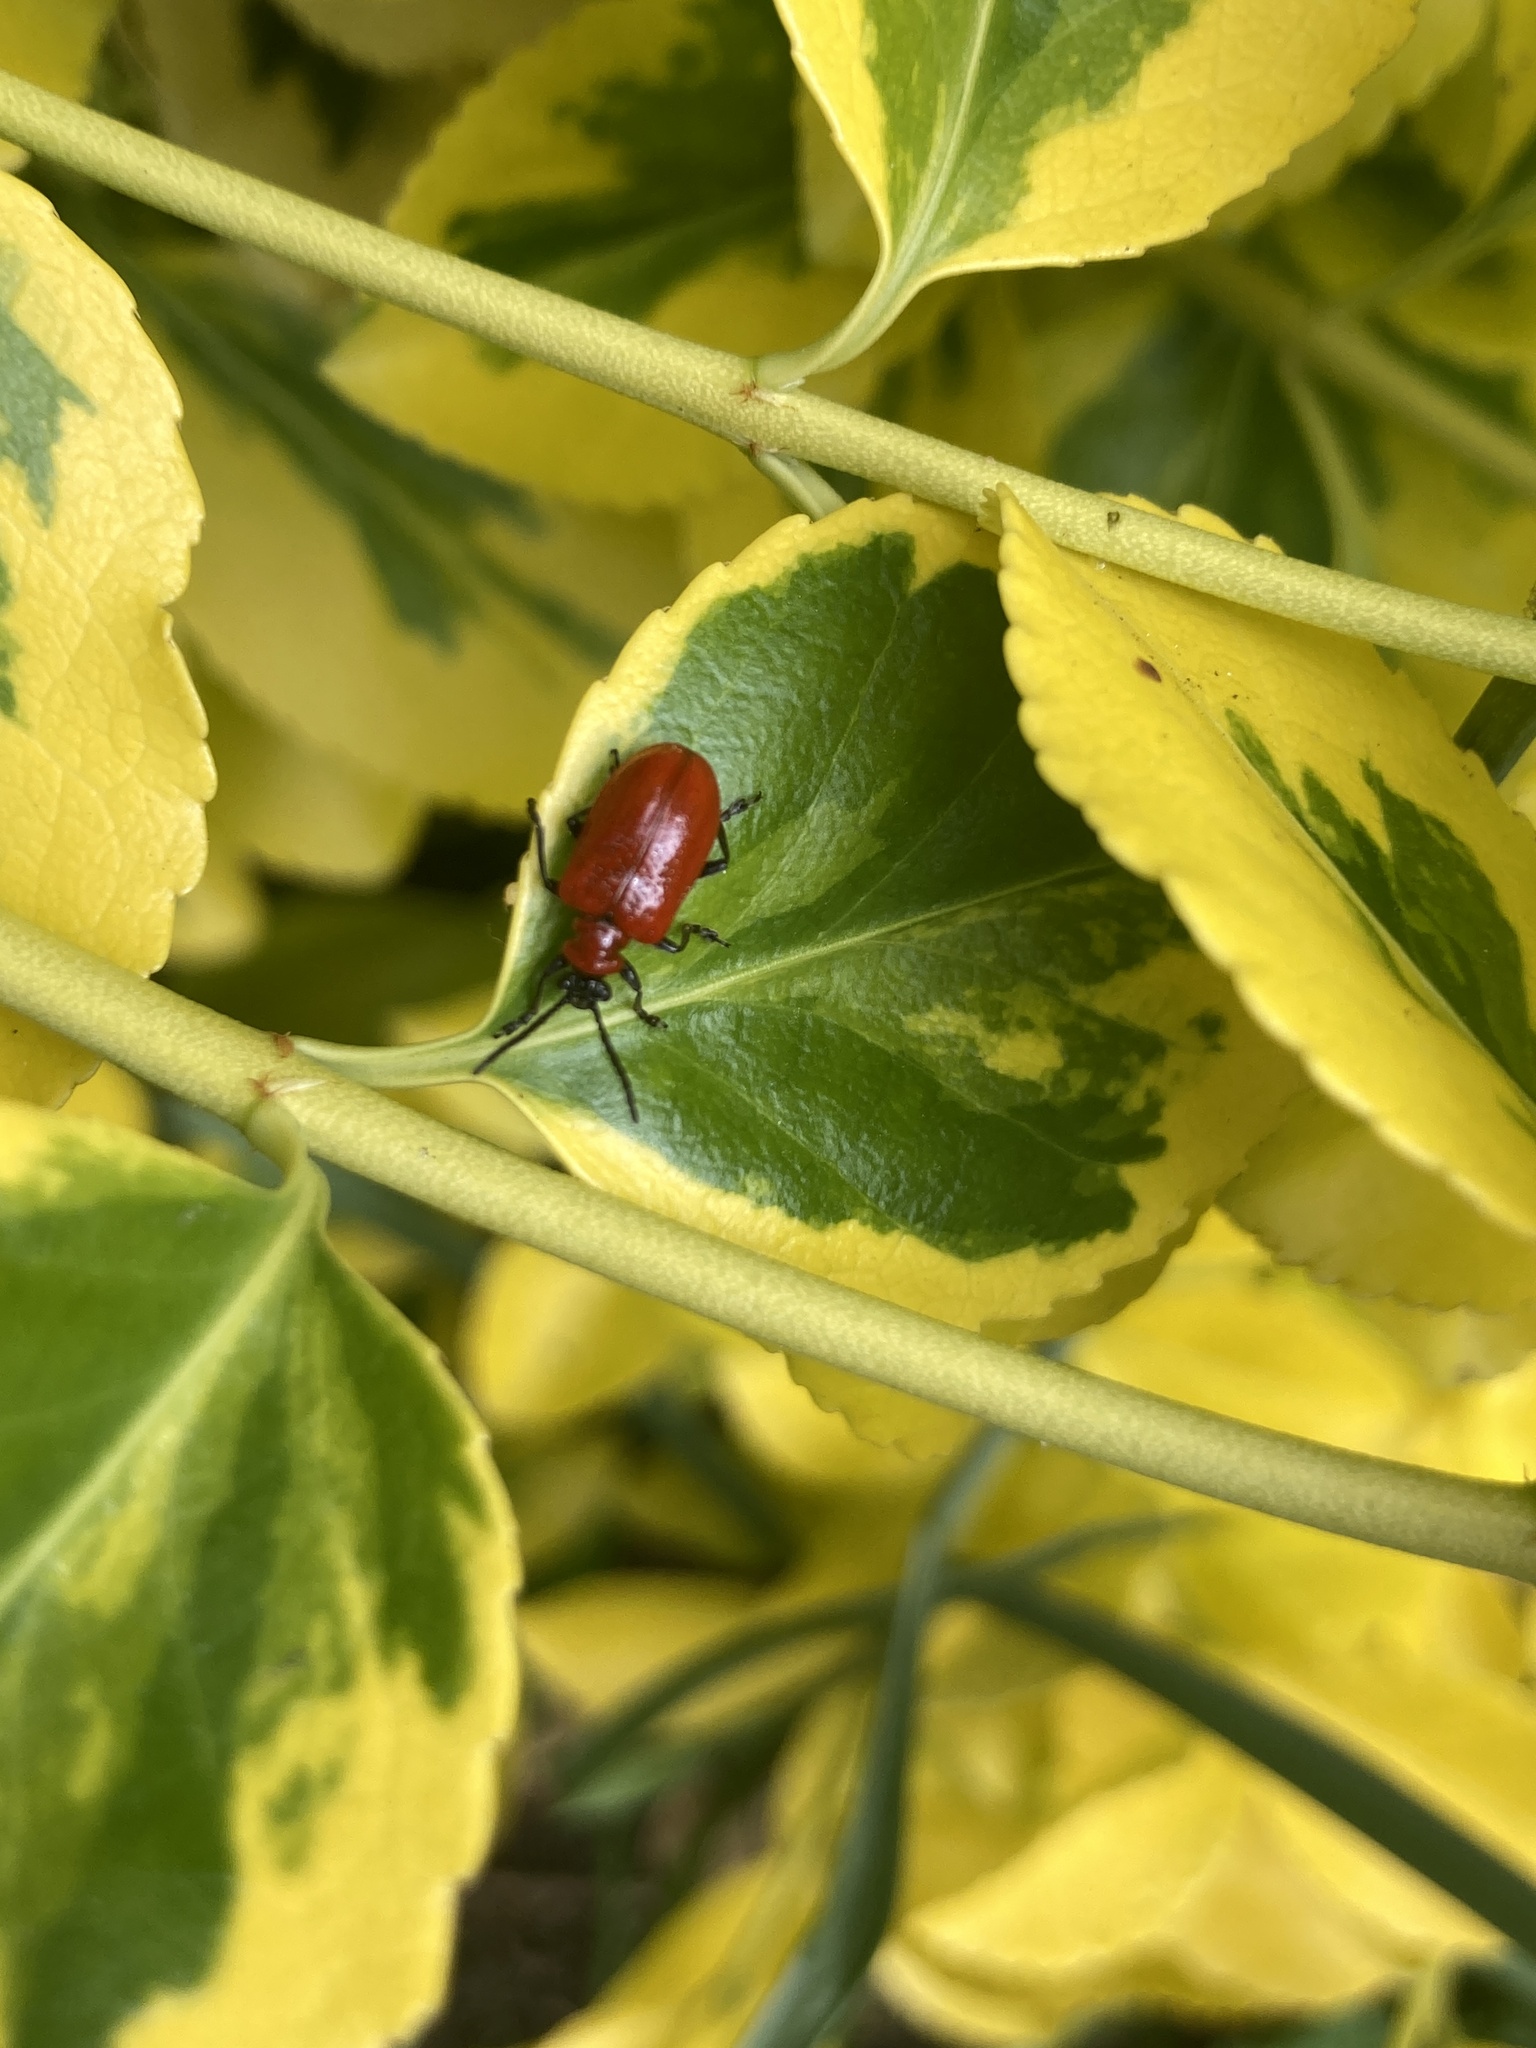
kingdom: Animalia
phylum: Arthropoda
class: Insecta
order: Coleoptera
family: Chrysomelidae
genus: Lilioceris
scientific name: Lilioceris lilii
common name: Lily beetle
